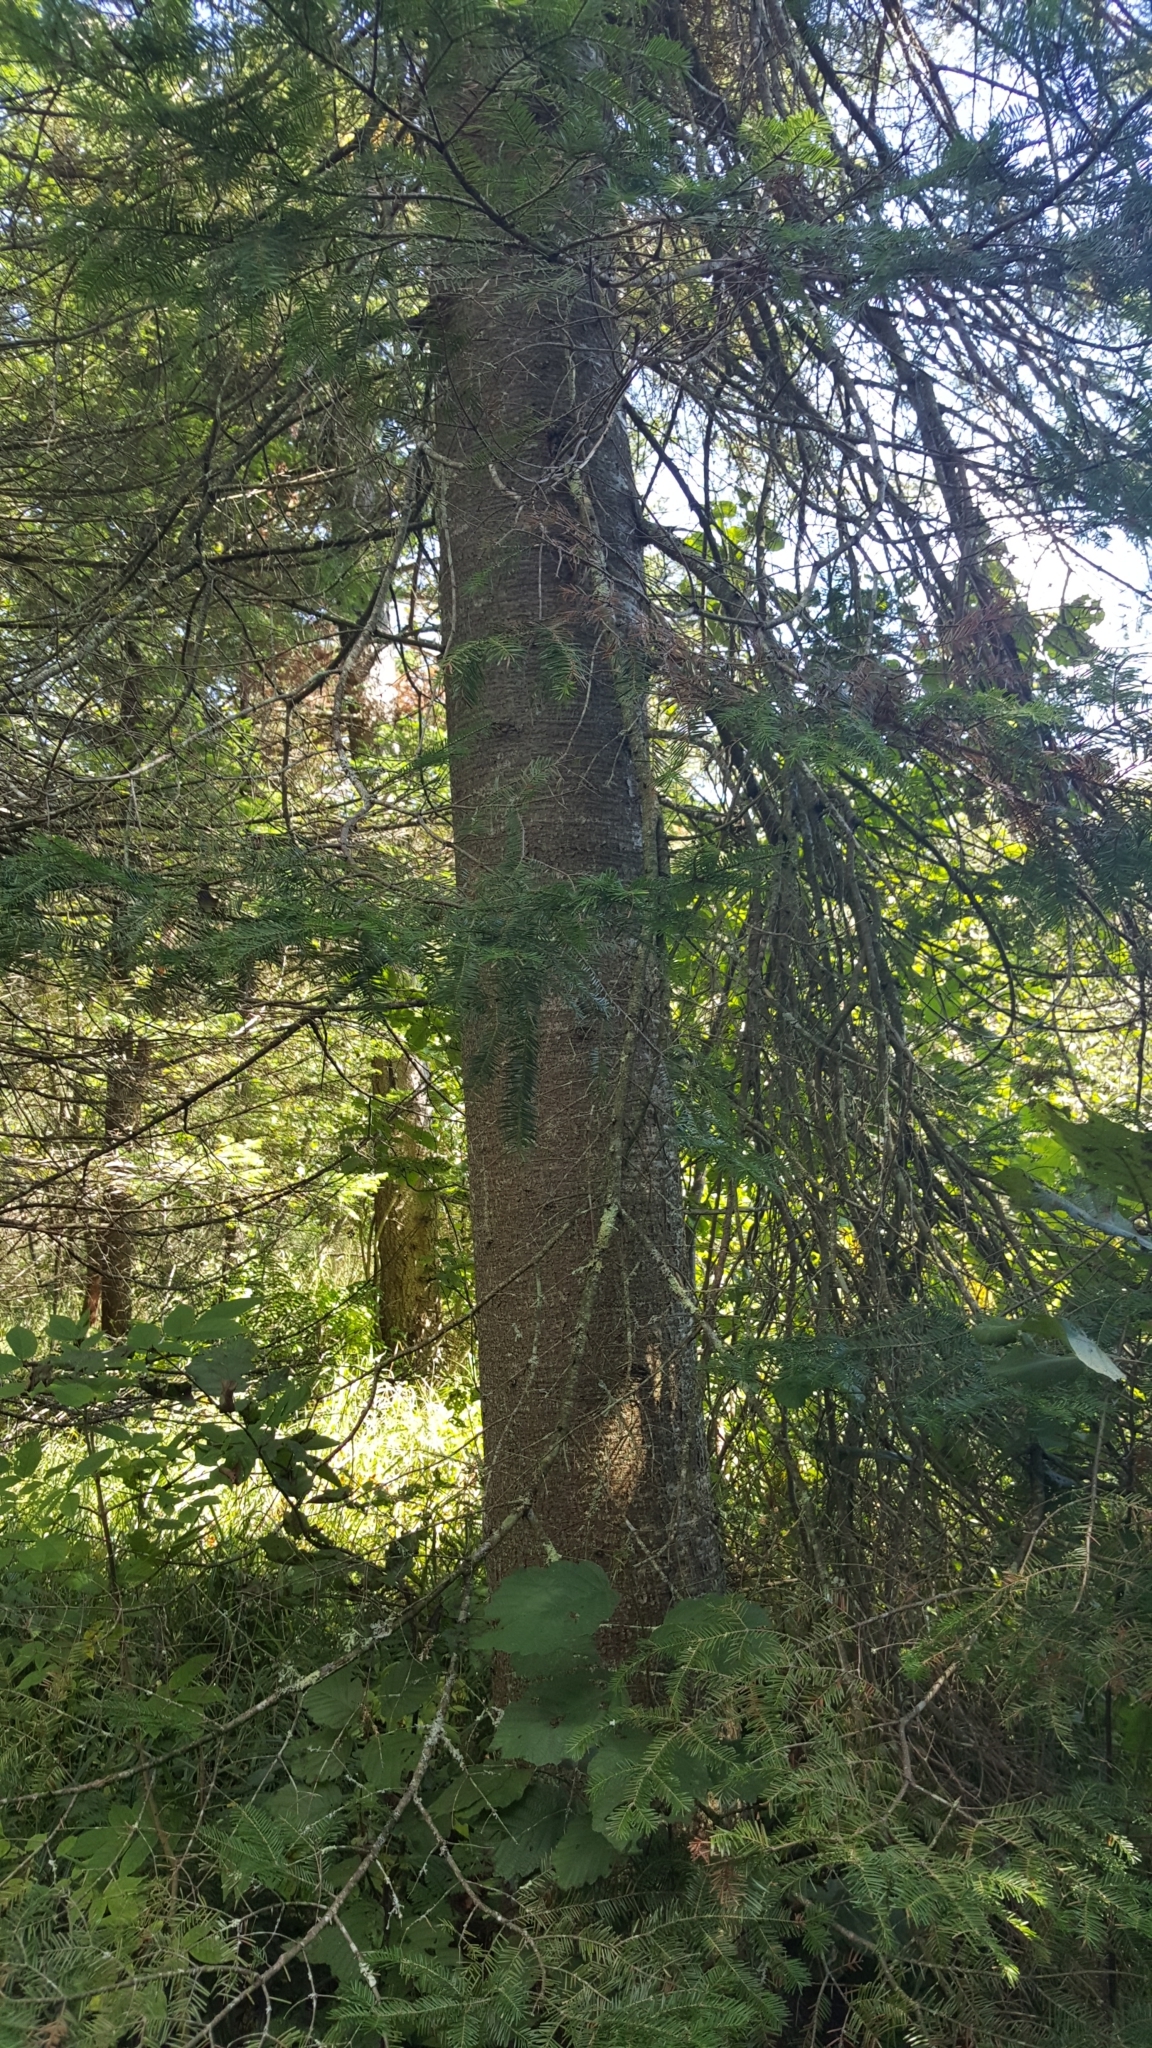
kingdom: Plantae
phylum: Tracheophyta
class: Pinopsida
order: Pinales
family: Pinaceae
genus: Abies
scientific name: Abies balsamea
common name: Balsam fir
